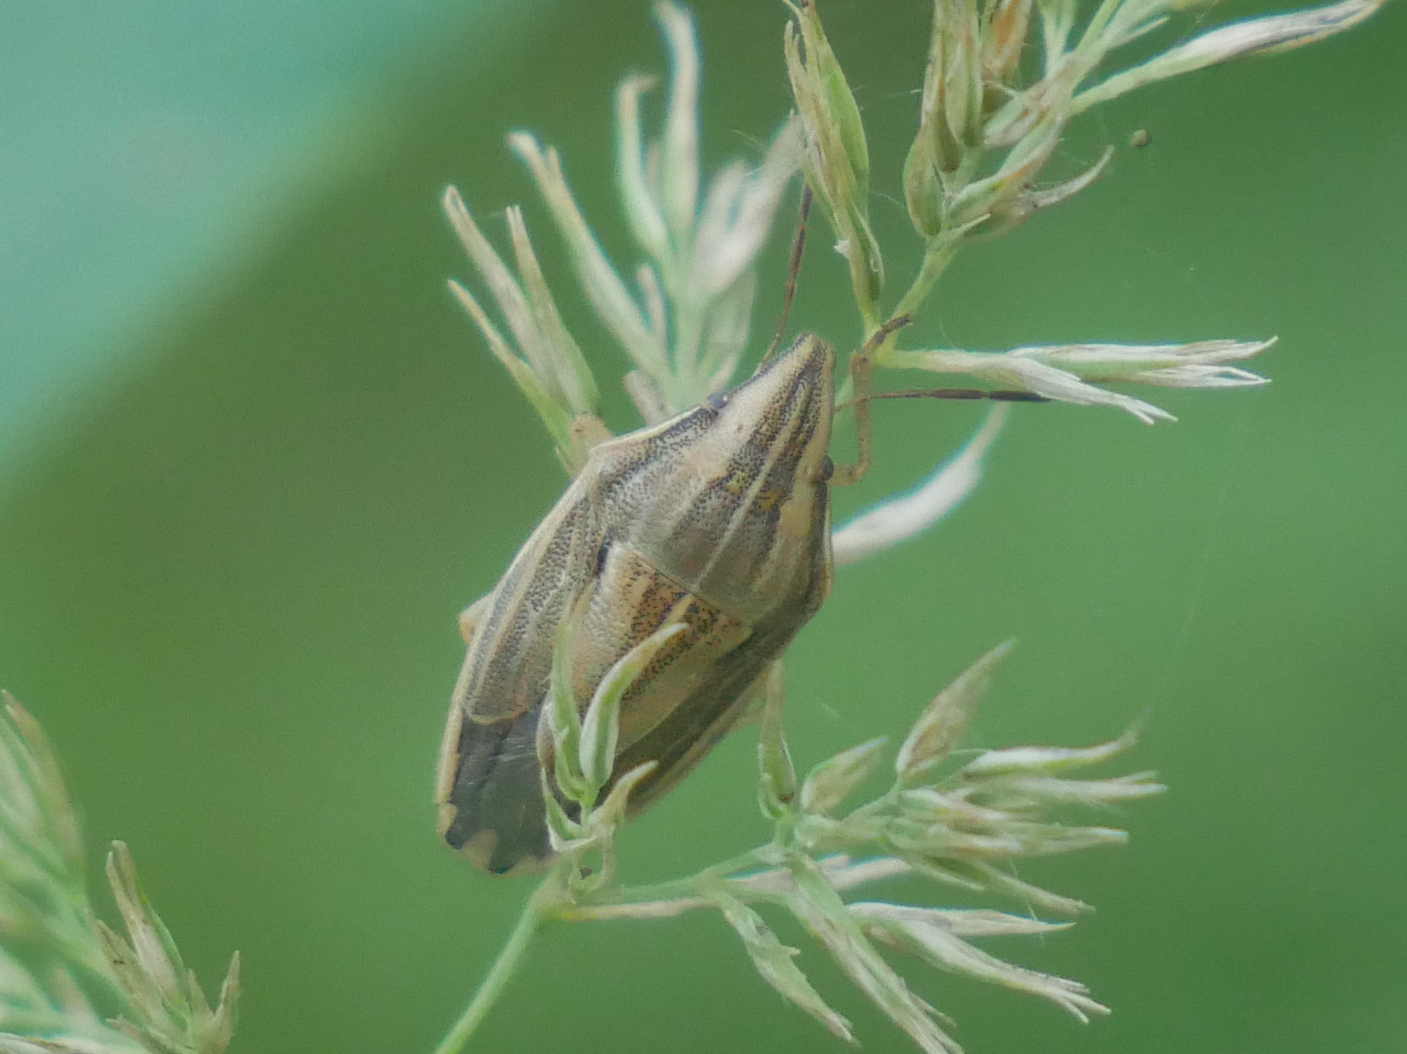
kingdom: Animalia
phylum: Arthropoda
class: Insecta
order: Hemiptera
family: Pentatomidae
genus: Aelia
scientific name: Aelia acuminata
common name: Bishop's mitre
